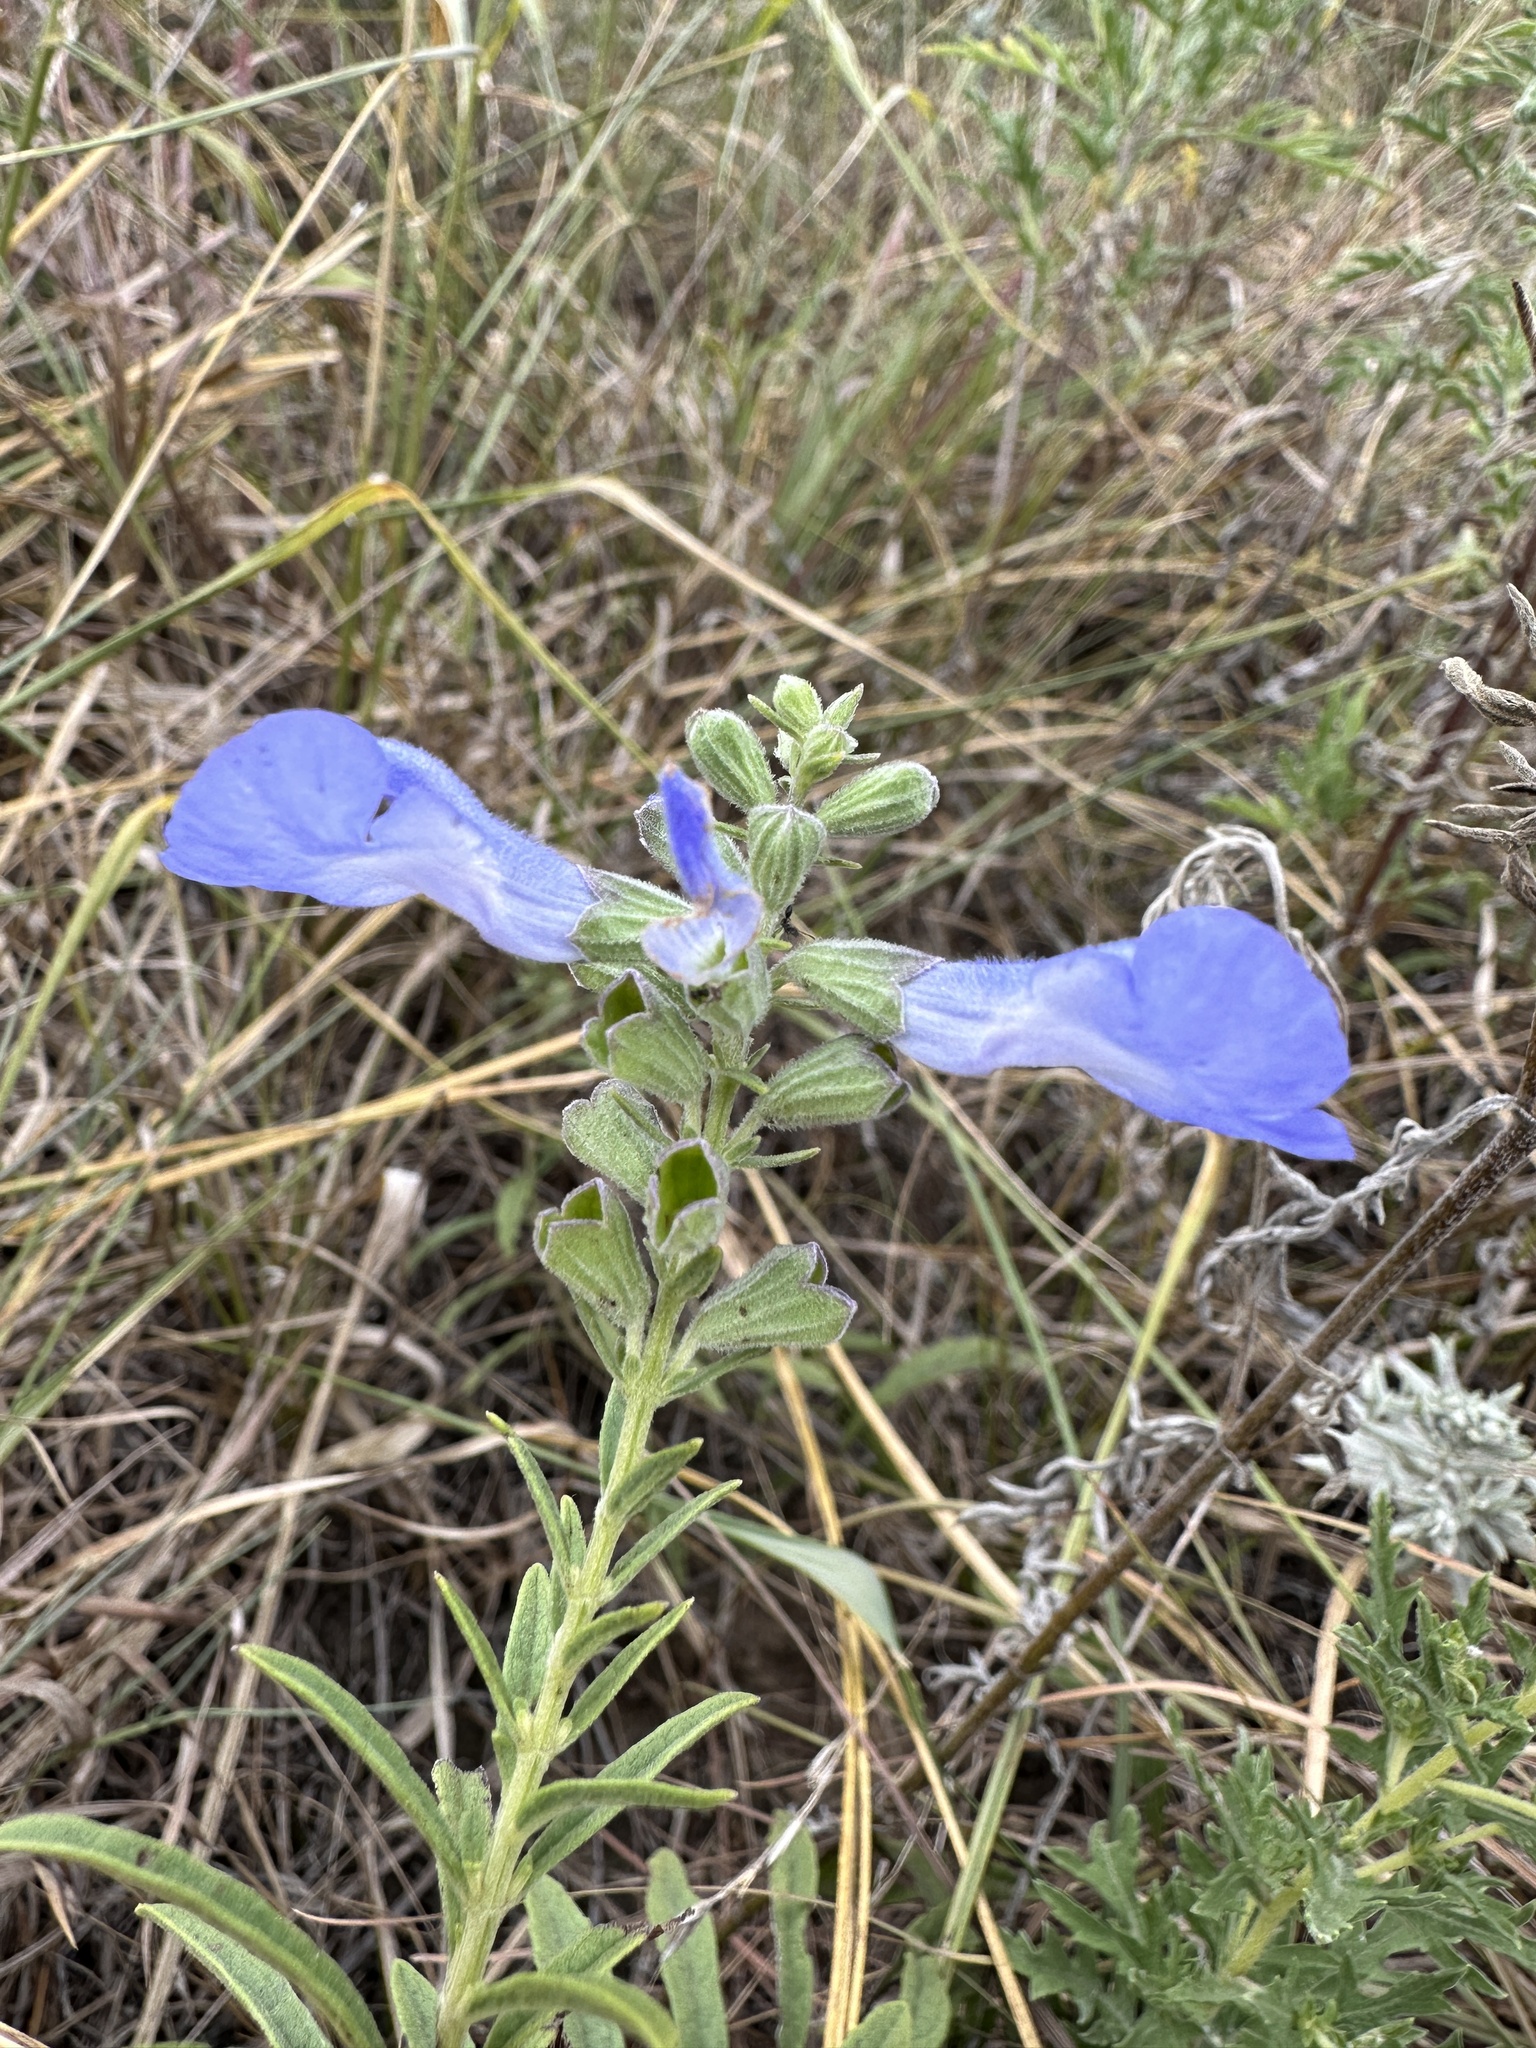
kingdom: Plantae
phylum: Tracheophyta
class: Magnoliopsida
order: Lamiales
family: Lamiaceae
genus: Salvia
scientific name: Salvia azurea
